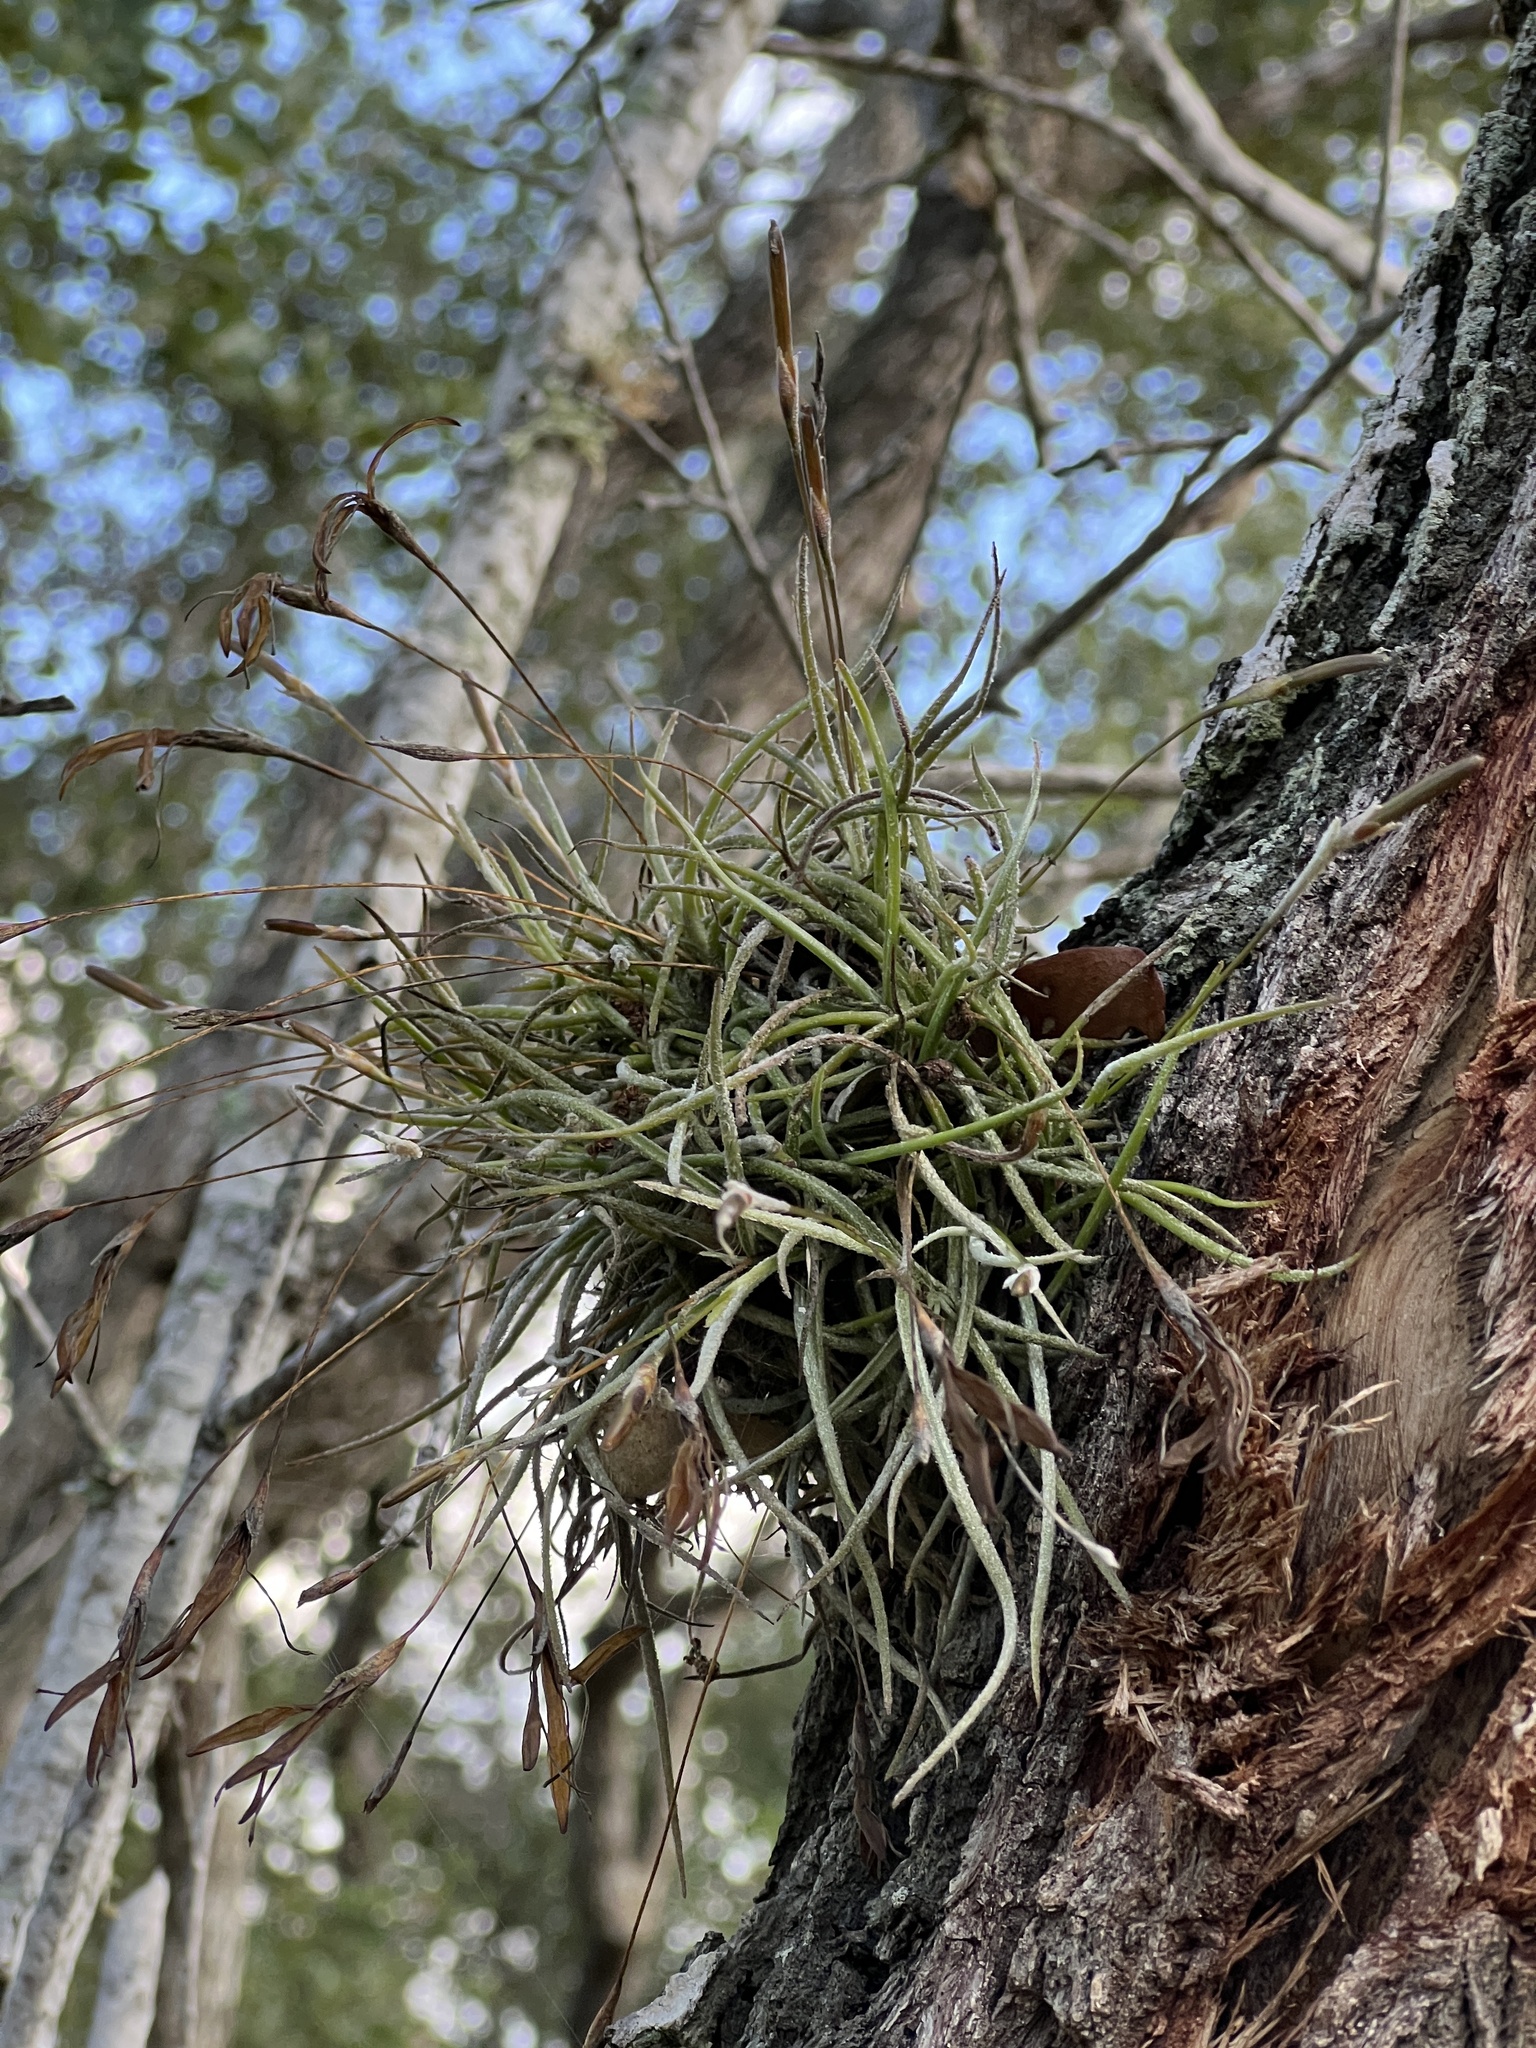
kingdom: Plantae
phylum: Tracheophyta
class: Liliopsida
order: Poales
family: Bromeliaceae
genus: Tillandsia
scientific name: Tillandsia recurvata
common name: Small ballmoss
